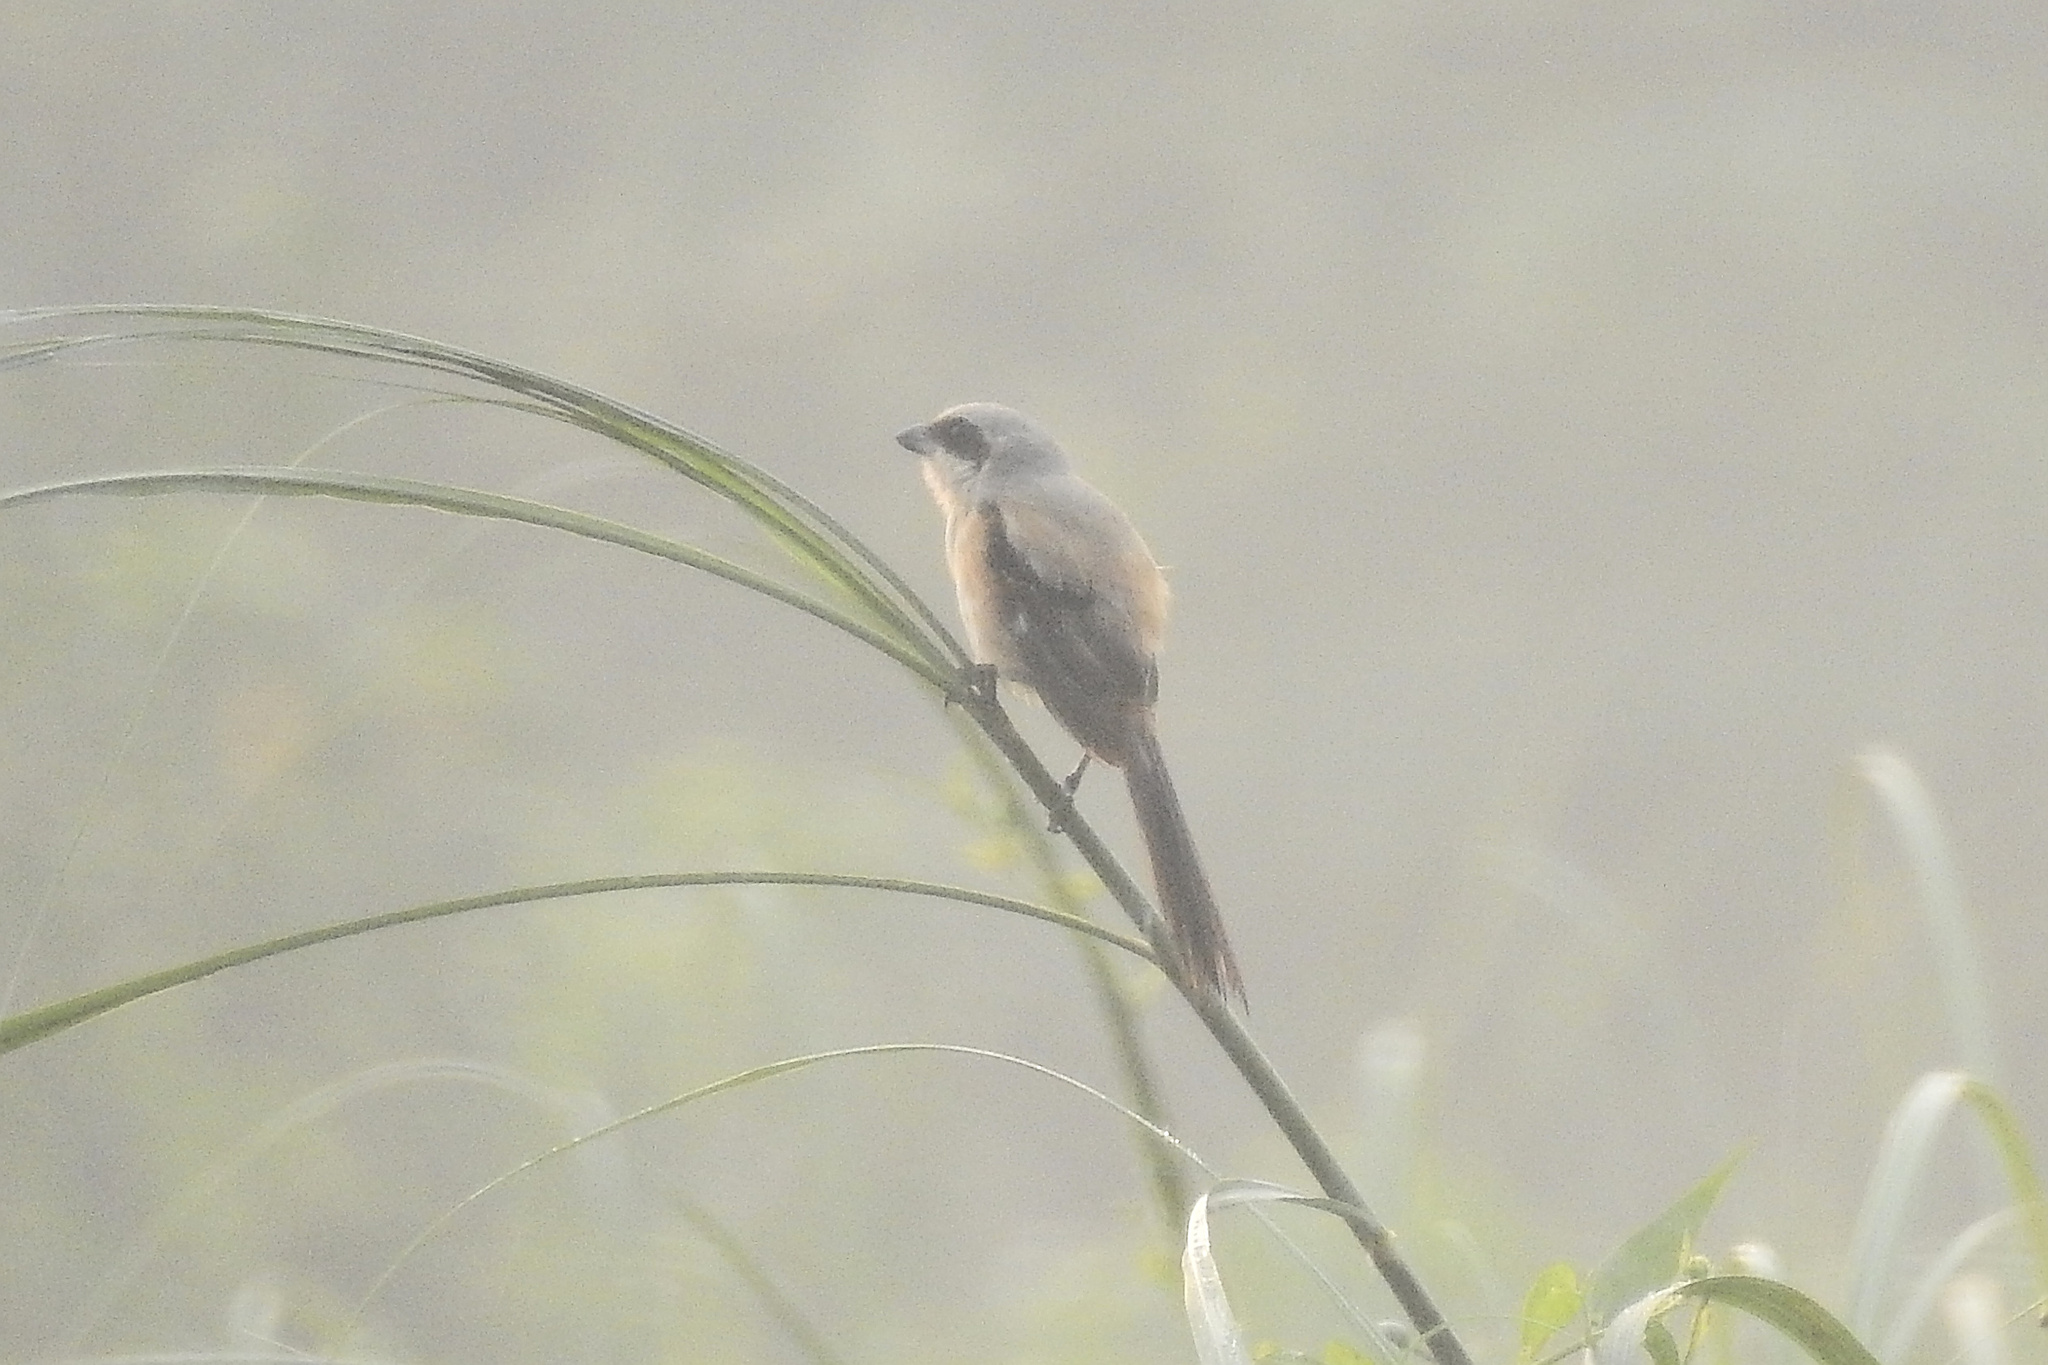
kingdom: Animalia
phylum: Chordata
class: Aves
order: Passeriformes
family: Laniidae
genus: Lanius
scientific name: Lanius schach
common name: Long-tailed shrike
